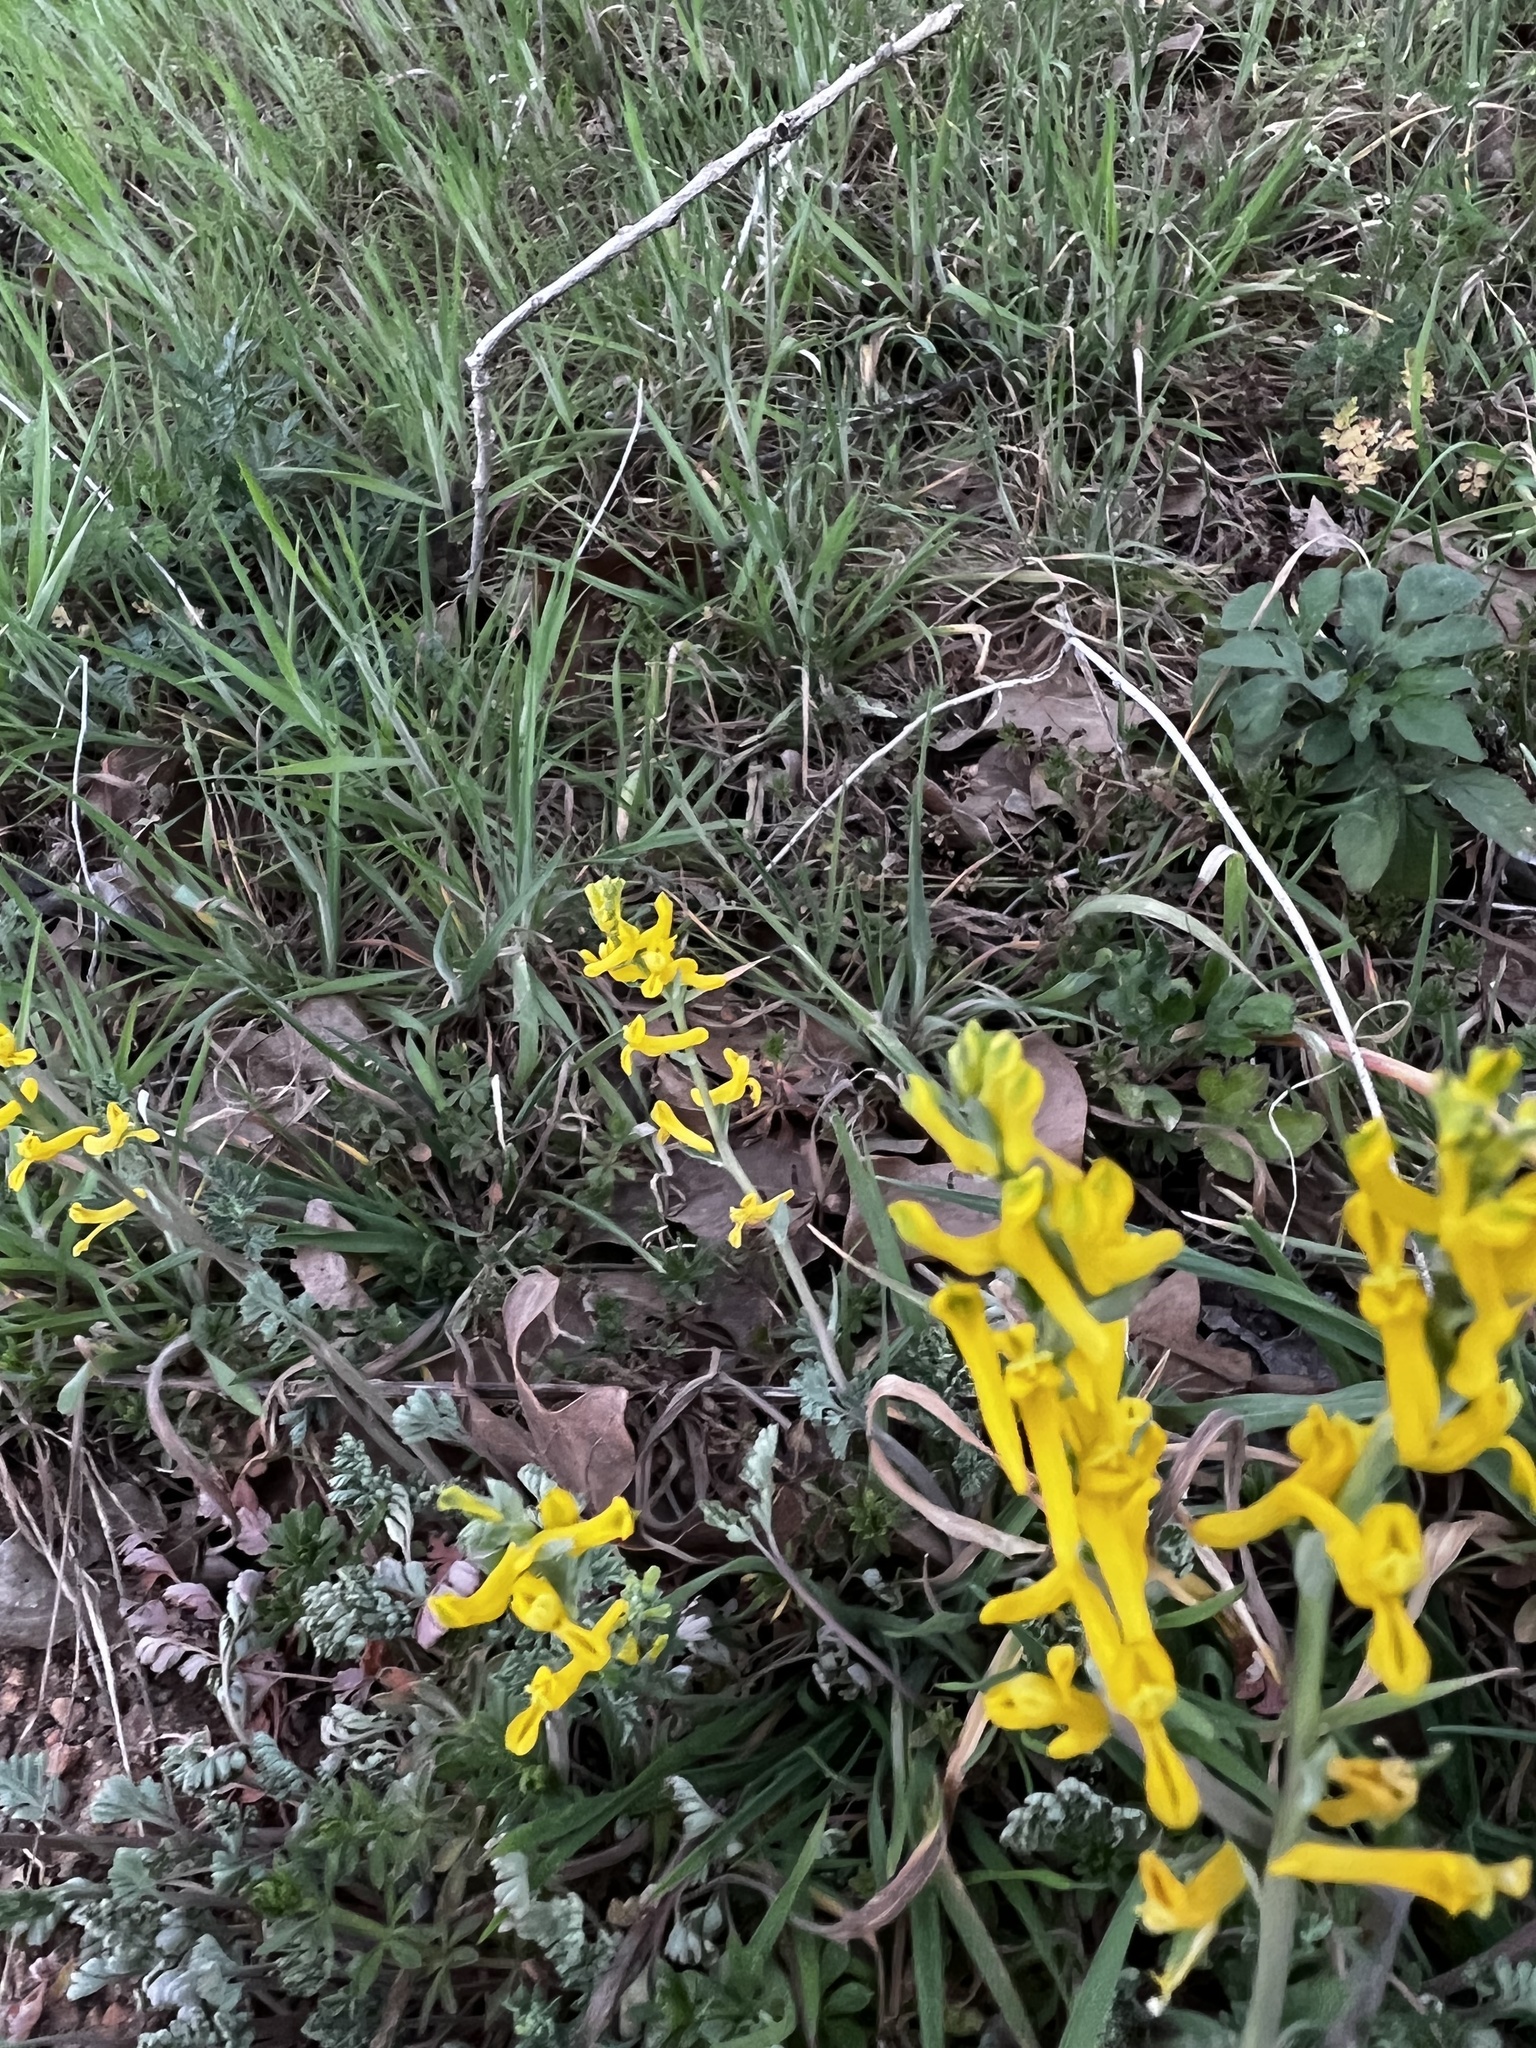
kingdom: Plantae
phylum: Tracheophyta
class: Magnoliopsida
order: Ranunculales
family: Papaveraceae
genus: Corydalis
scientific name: Corydalis aurea
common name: Golden corydalis
